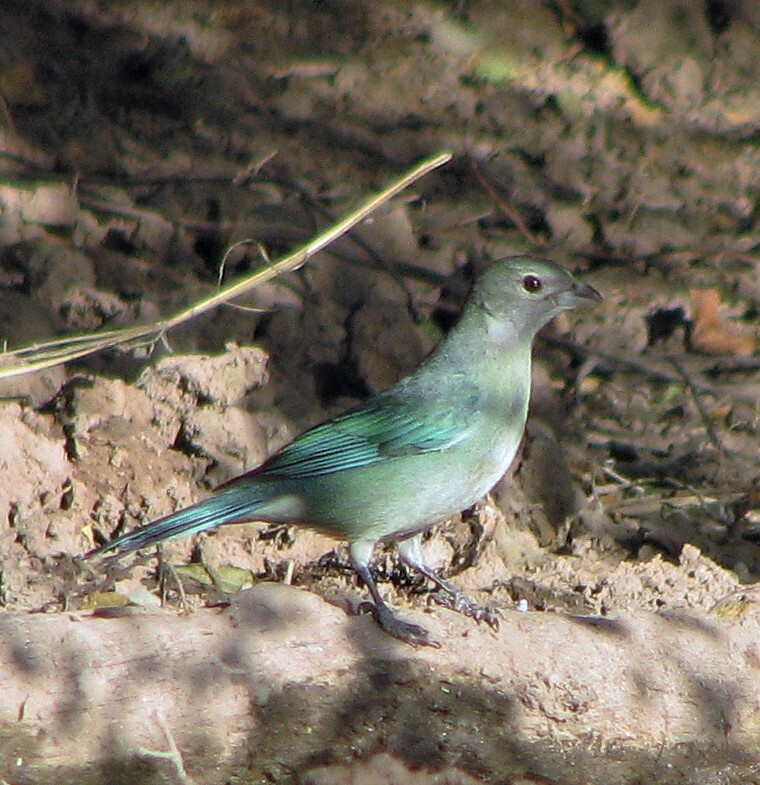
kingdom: Animalia
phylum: Chordata
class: Aves
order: Passeriformes
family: Thraupidae
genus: Thraupis
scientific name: Thraupis sayaca
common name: Sayaca tanager
